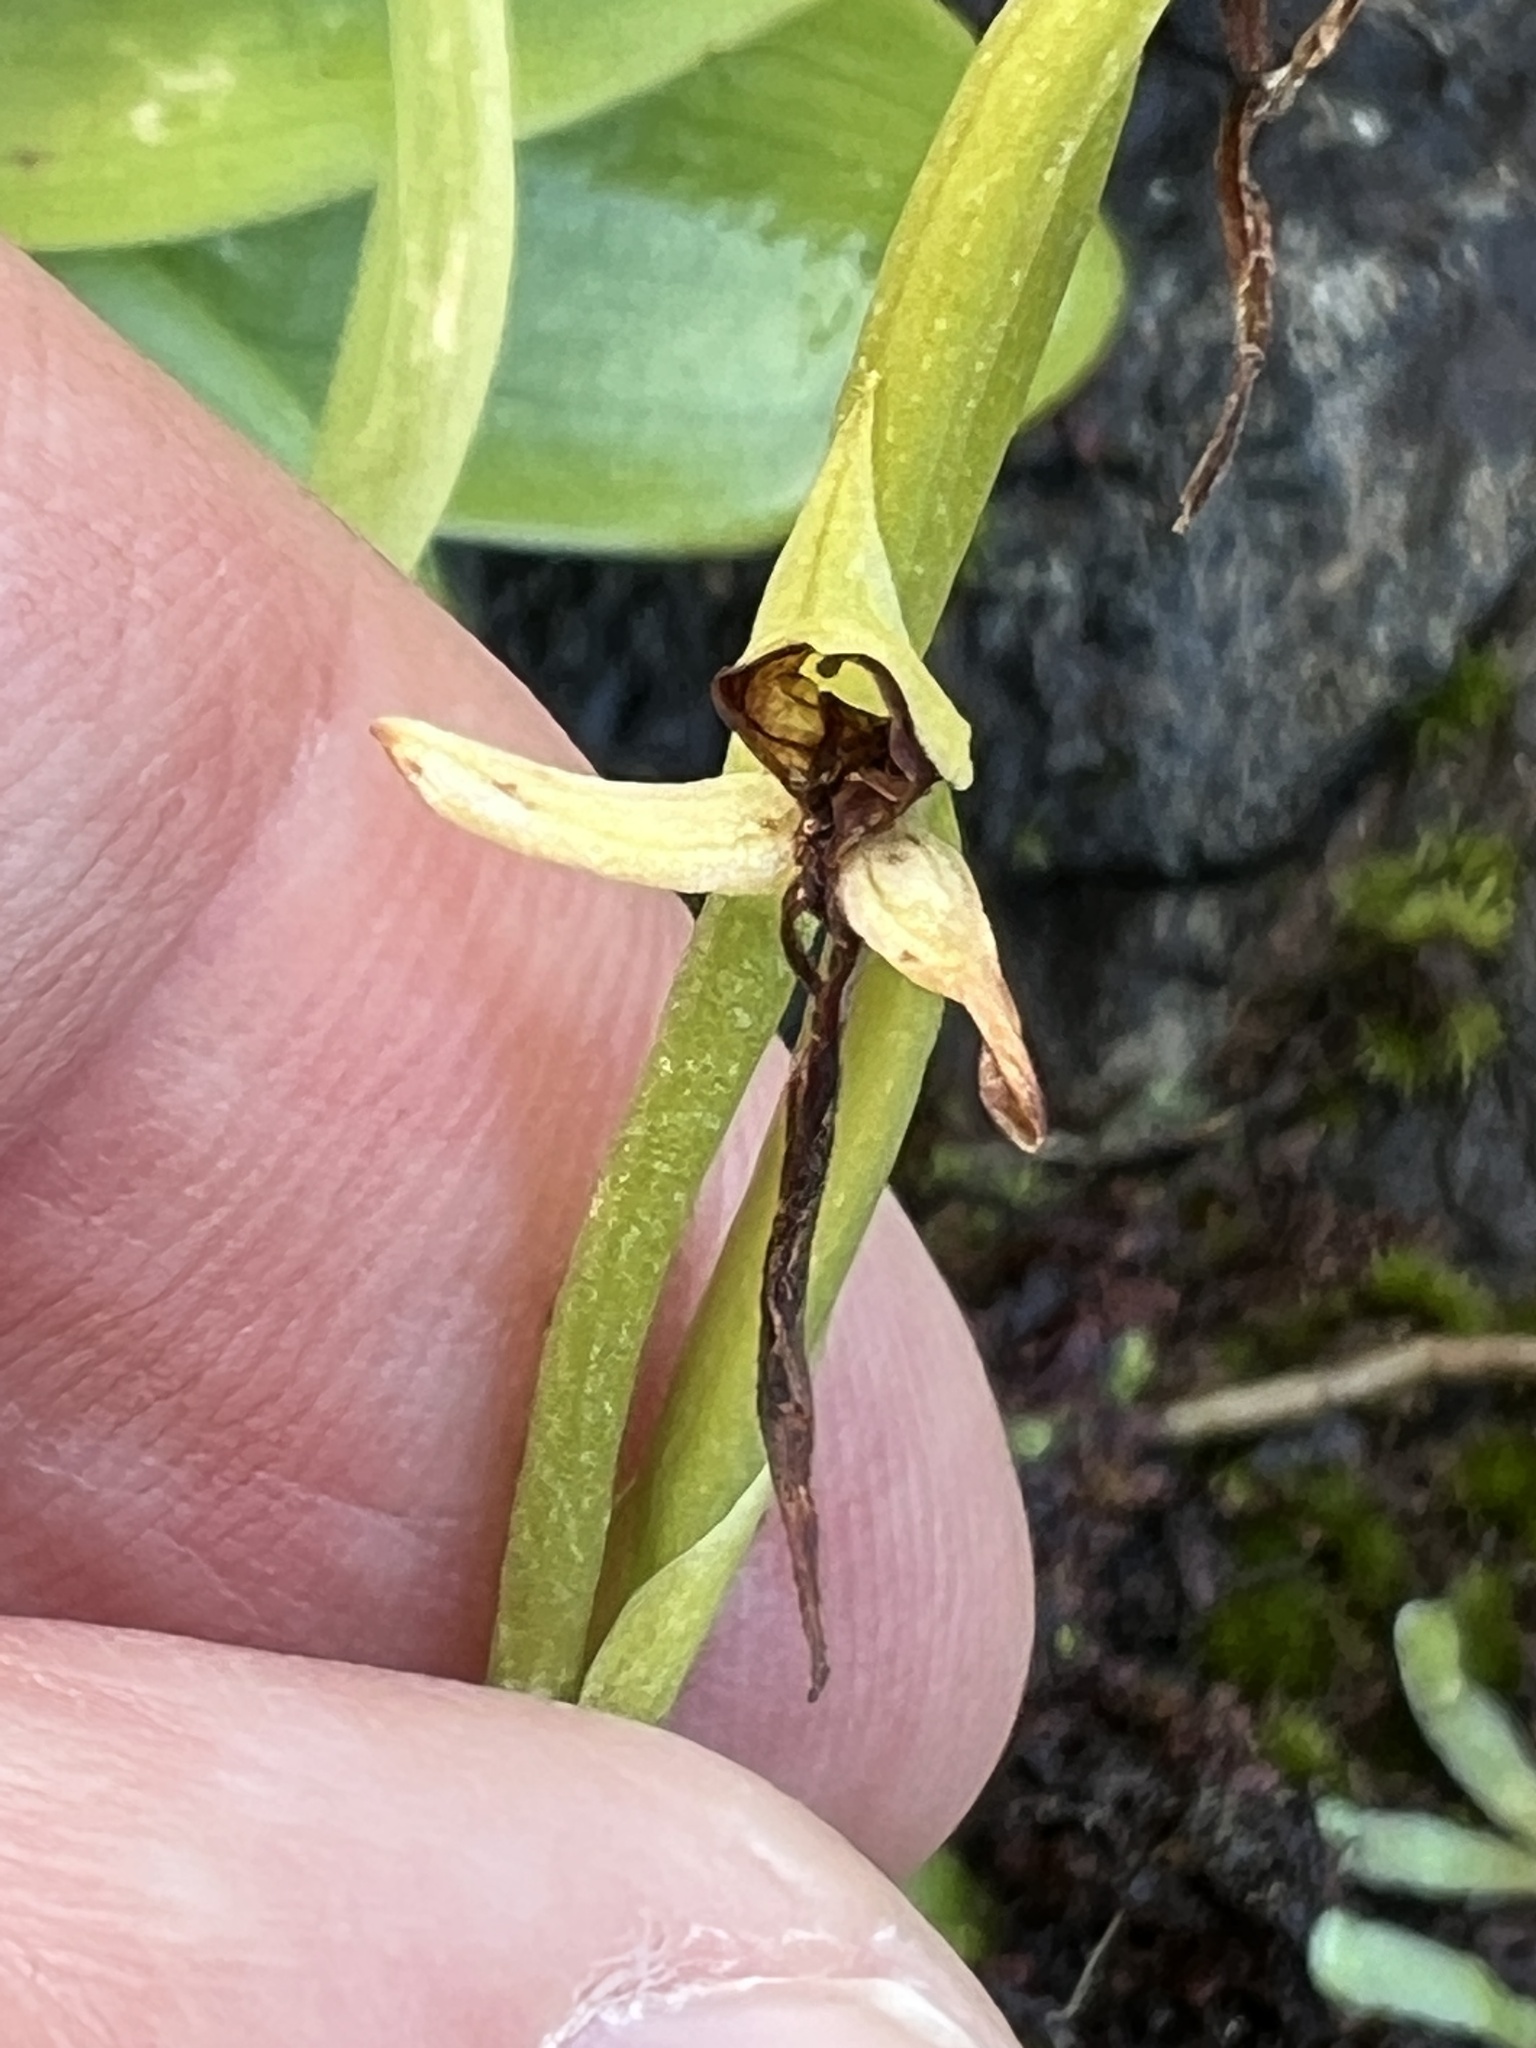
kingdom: Plantae
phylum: Tracheophyta
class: Liliopsida
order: Asparagales
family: Orchidaceae
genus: Habenaria
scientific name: Habenaria tridactylites
